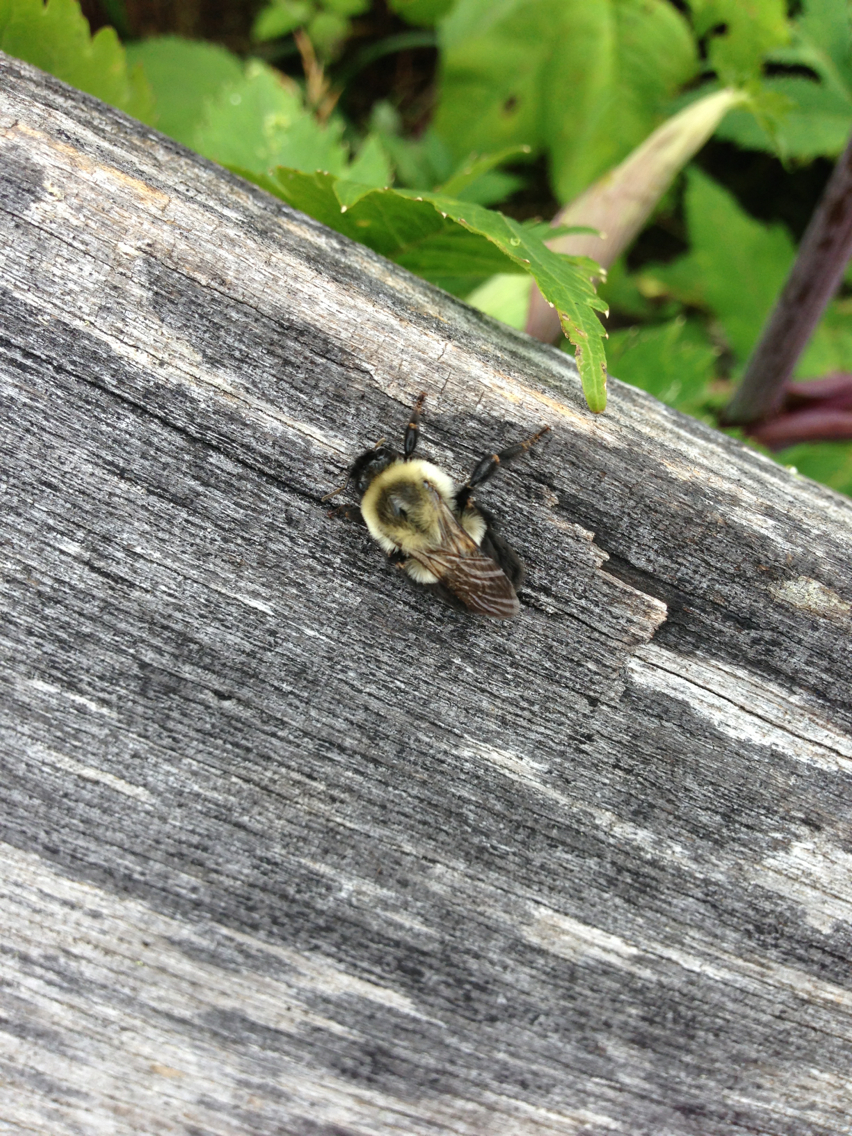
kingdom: Animalia
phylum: Arthropoda
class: Insecta
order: Hymenoptera
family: Apidae
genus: Bombus
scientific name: Bombus impatiens
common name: Common eastern bumble bee
